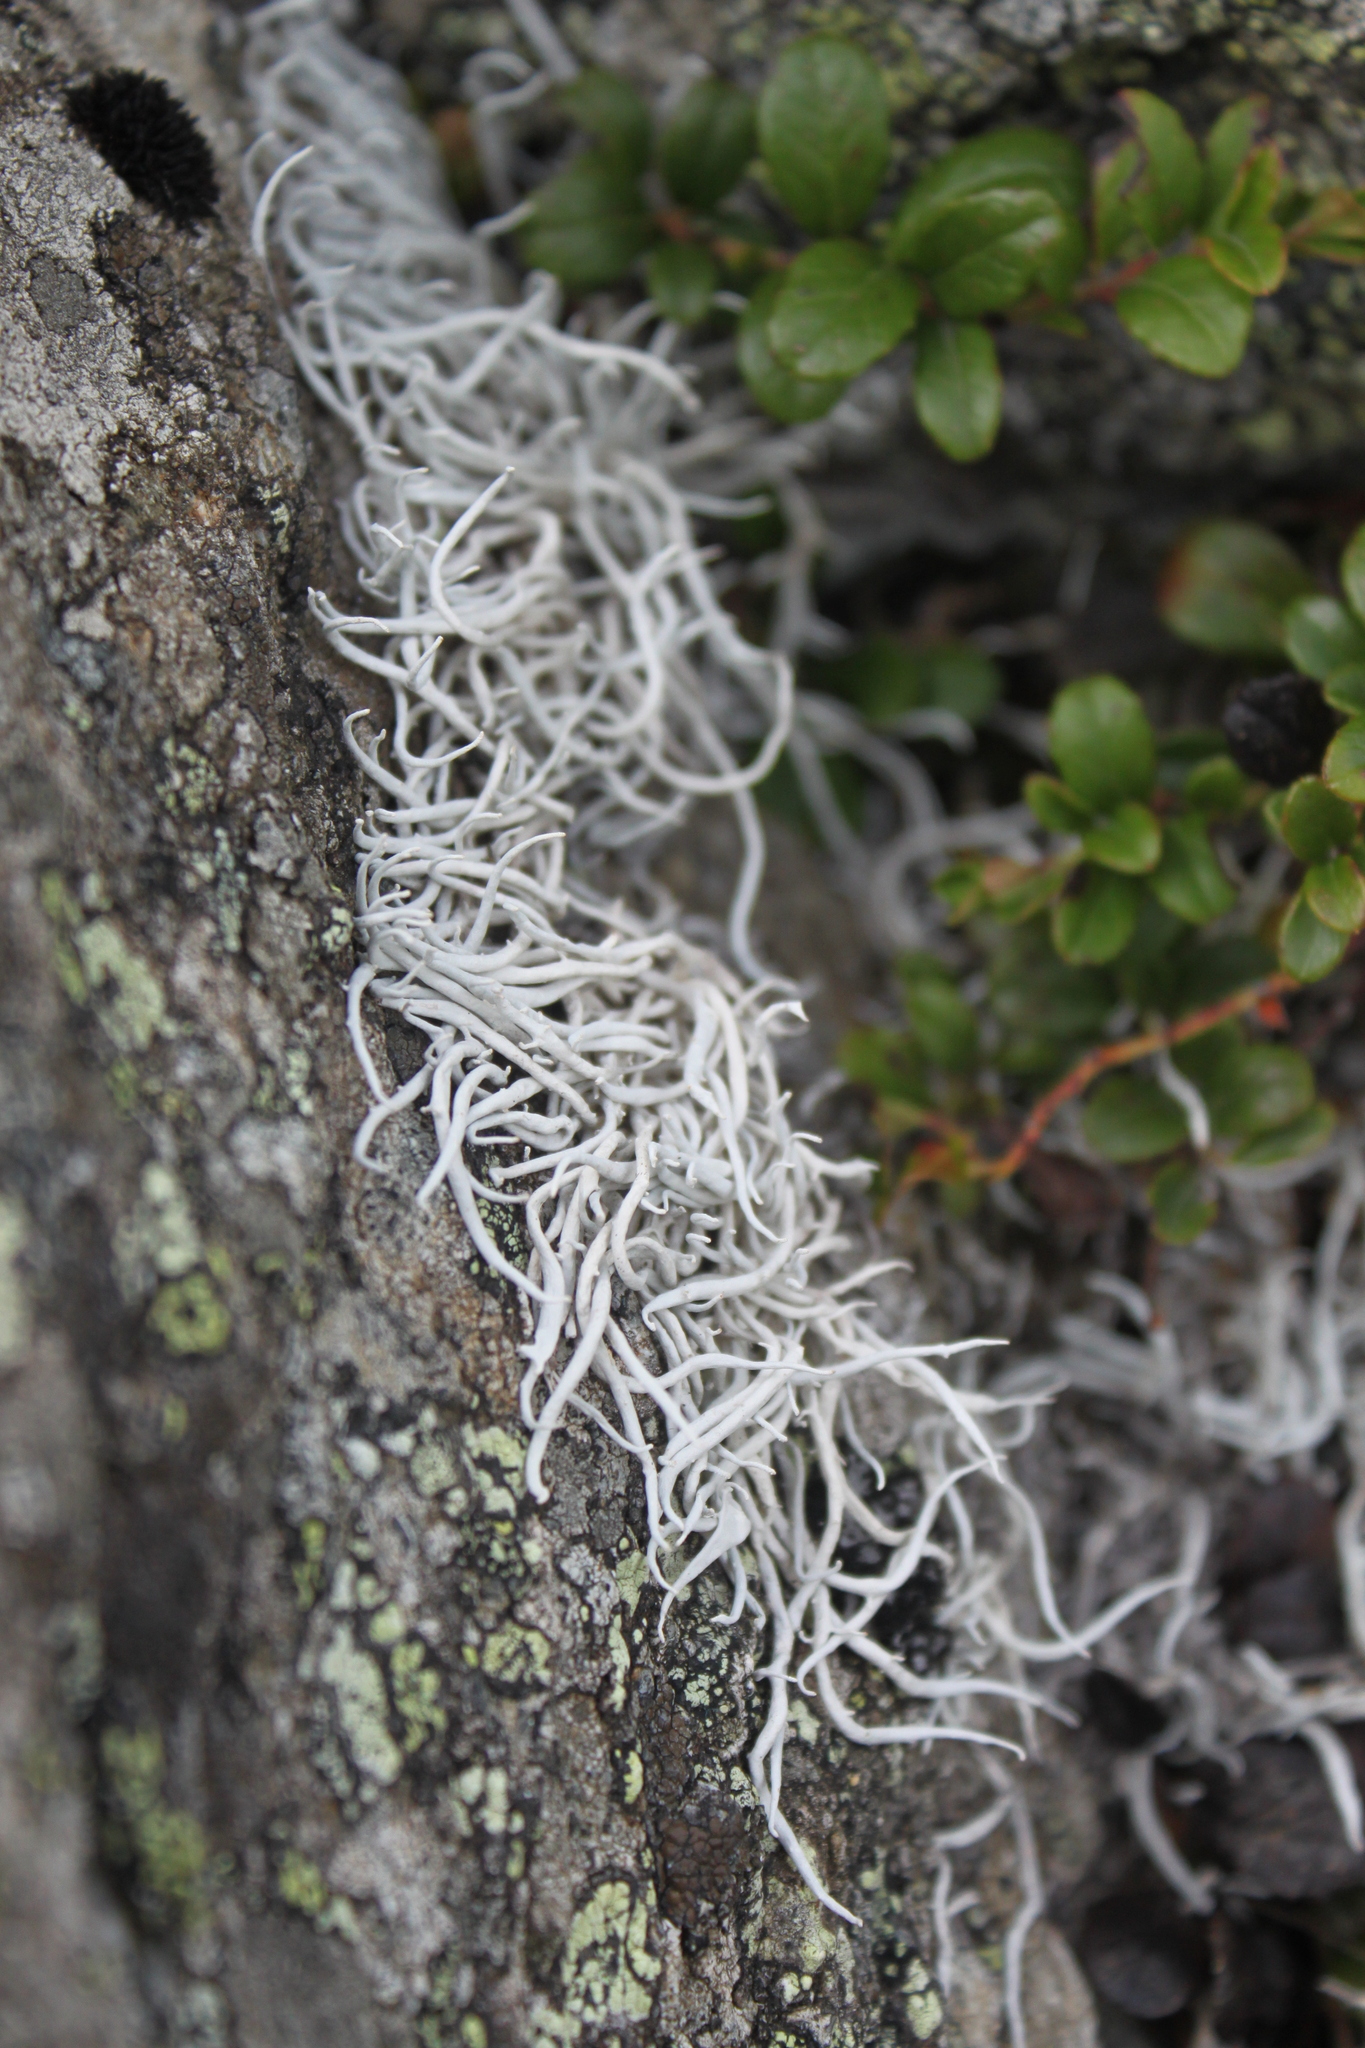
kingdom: Fungi
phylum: Ascomycota
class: Lecanoromycetes
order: Pertusariales
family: Icmadophilaceae
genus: Thamnolia
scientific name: Thamnolia vermicularis
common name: Whiteworm lichen
